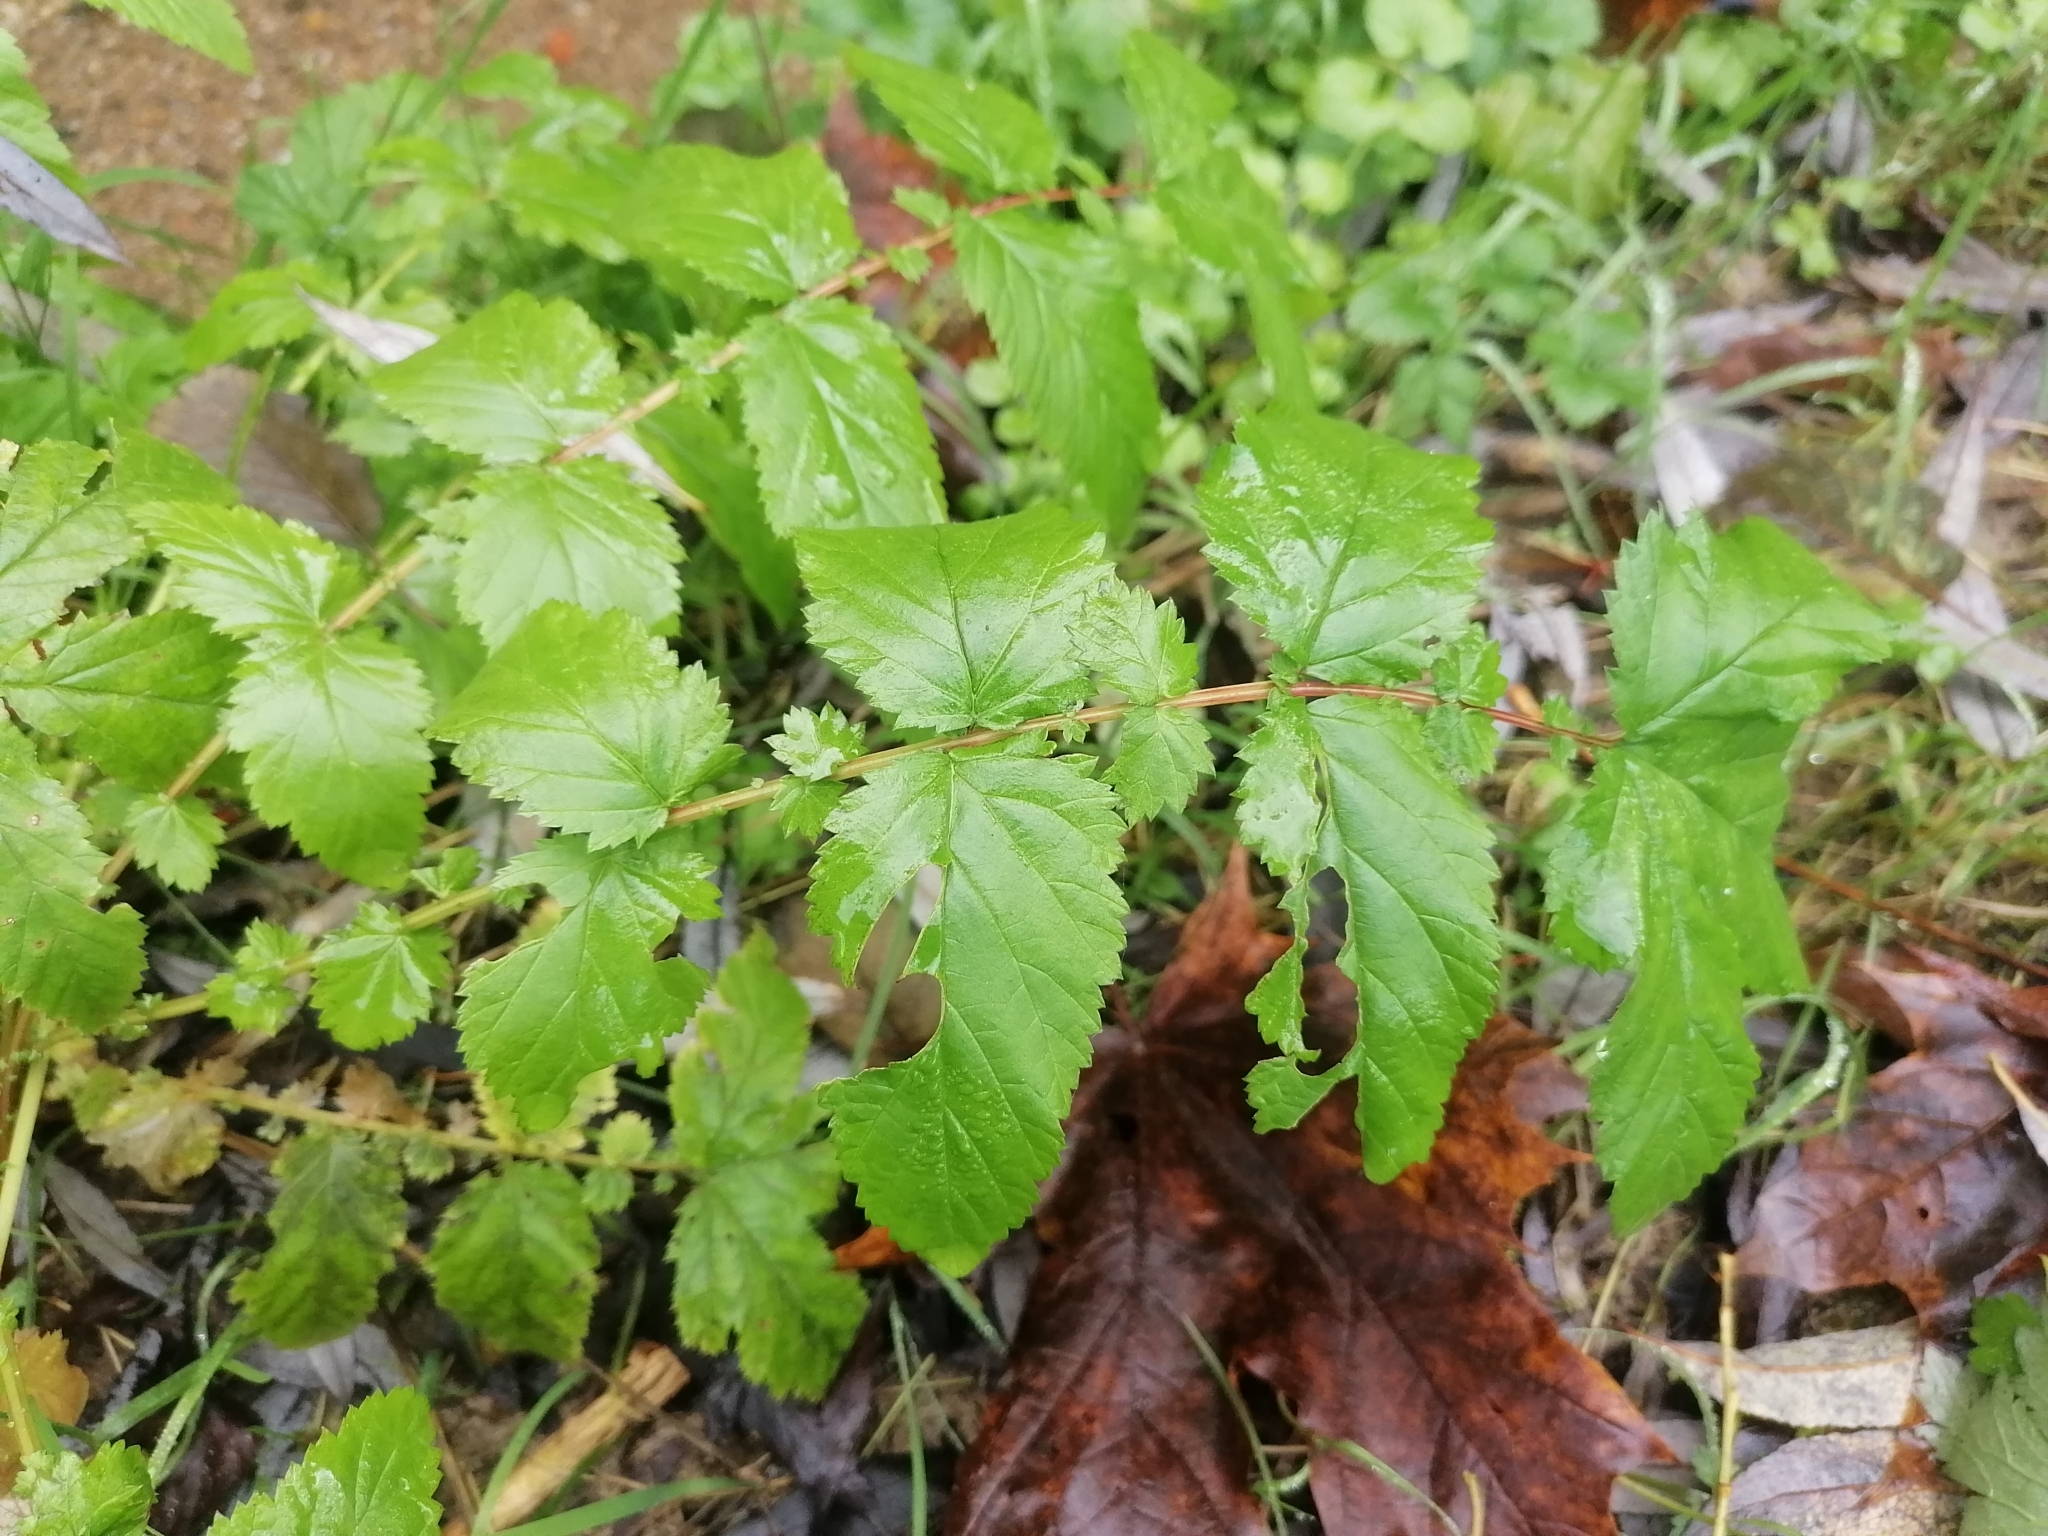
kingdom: Plantae
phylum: Tracheophyta
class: Magnoliopsida
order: Rosales
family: Rosaceae
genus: Filipendula
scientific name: Filipendula ulmaria
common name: Meadowsweet
